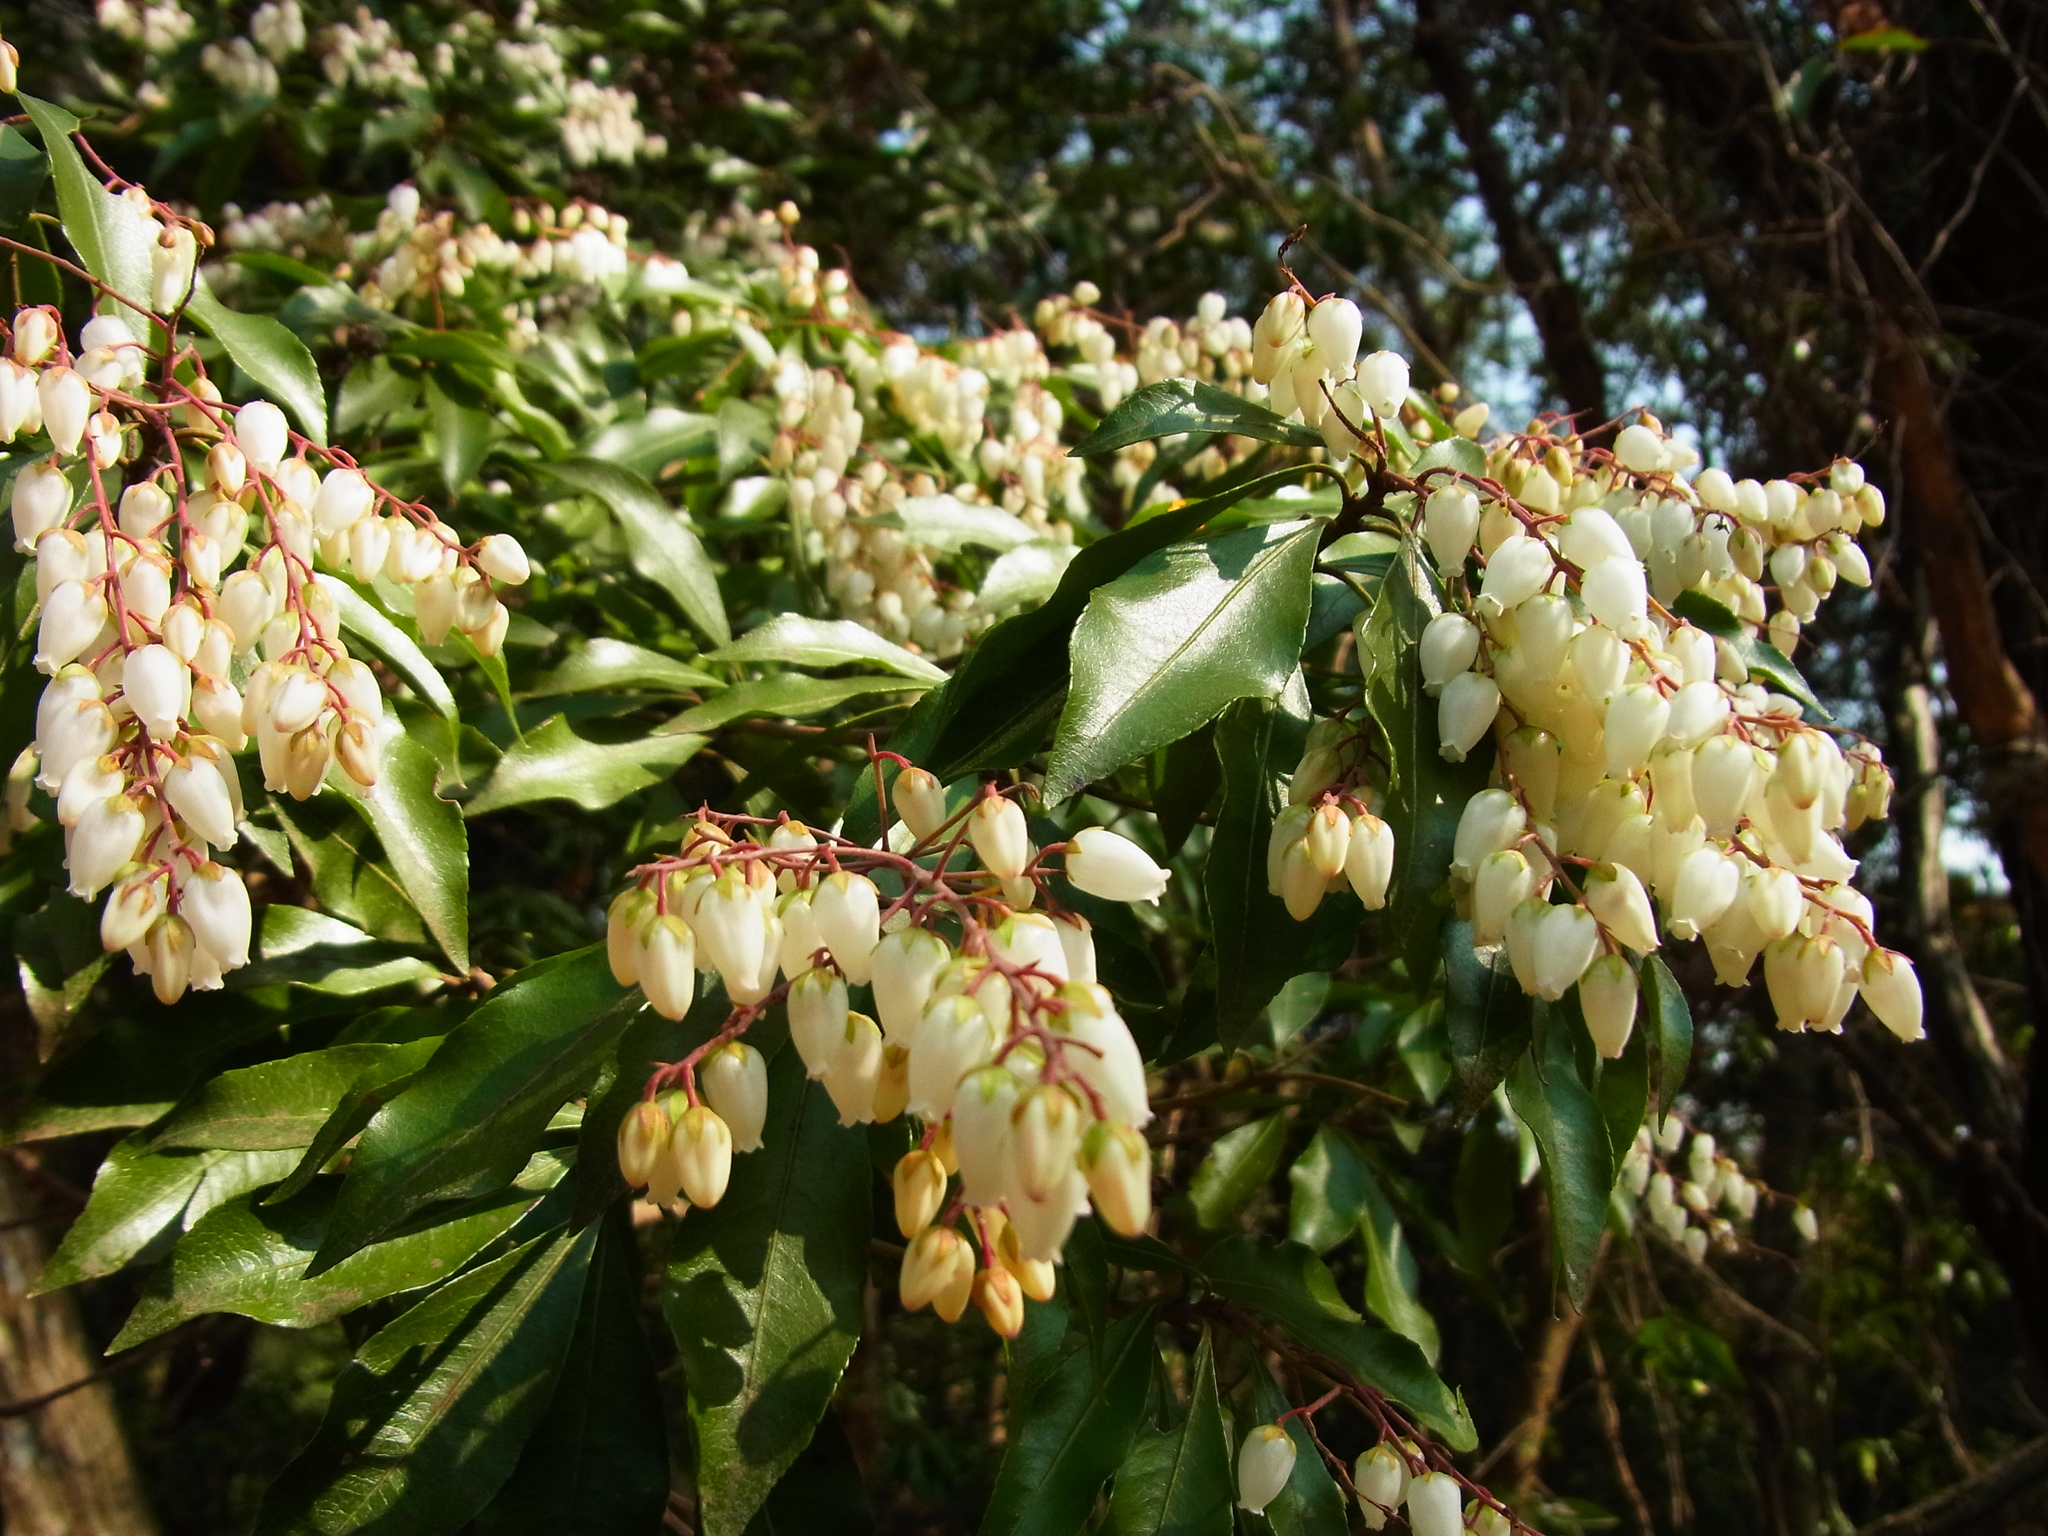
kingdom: Plantae
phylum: Tracheophyta
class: Magnoliopsida
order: Ericales
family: Ericaceae
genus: Pieris
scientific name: Pieris japonica
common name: Japanese pieris
